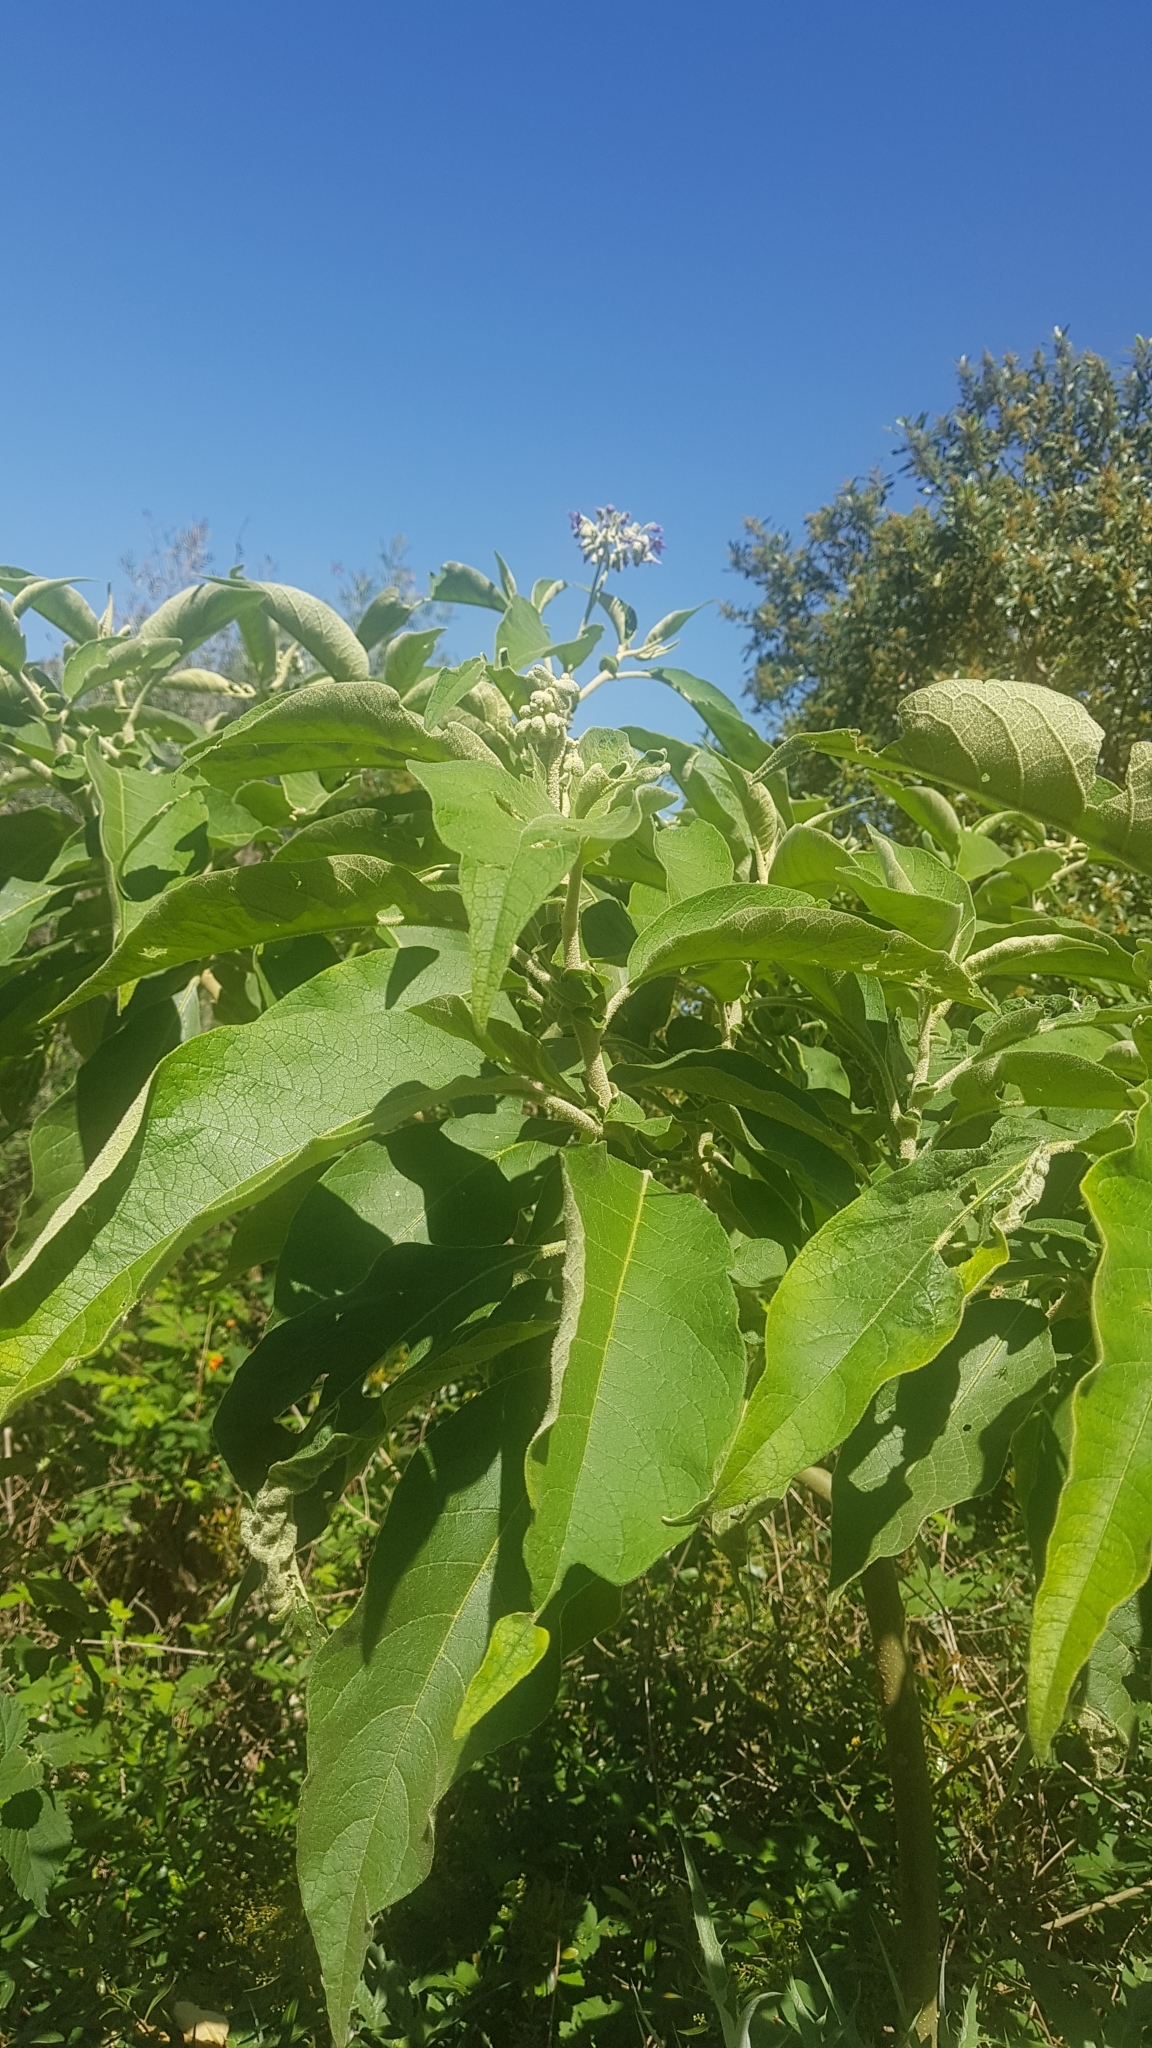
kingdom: Plantae
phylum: Tracheophyta
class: Magnoliopsida
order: Solanales
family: Solanaceae
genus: Solanum
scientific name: Solanum mauritianum
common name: Earleaf nightshade
